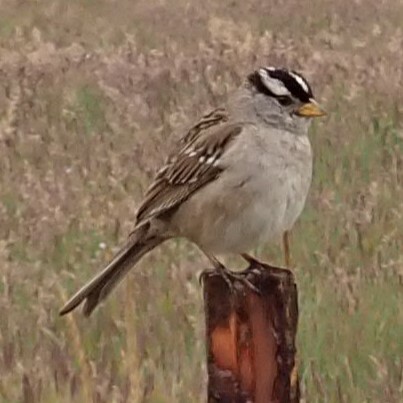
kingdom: Animalia
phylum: Chordata
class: Aves
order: Passeriformes
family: Passerellidae
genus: Zonotrichia
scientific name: Zonotrichia leucophrys
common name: White-crowned sparrow
